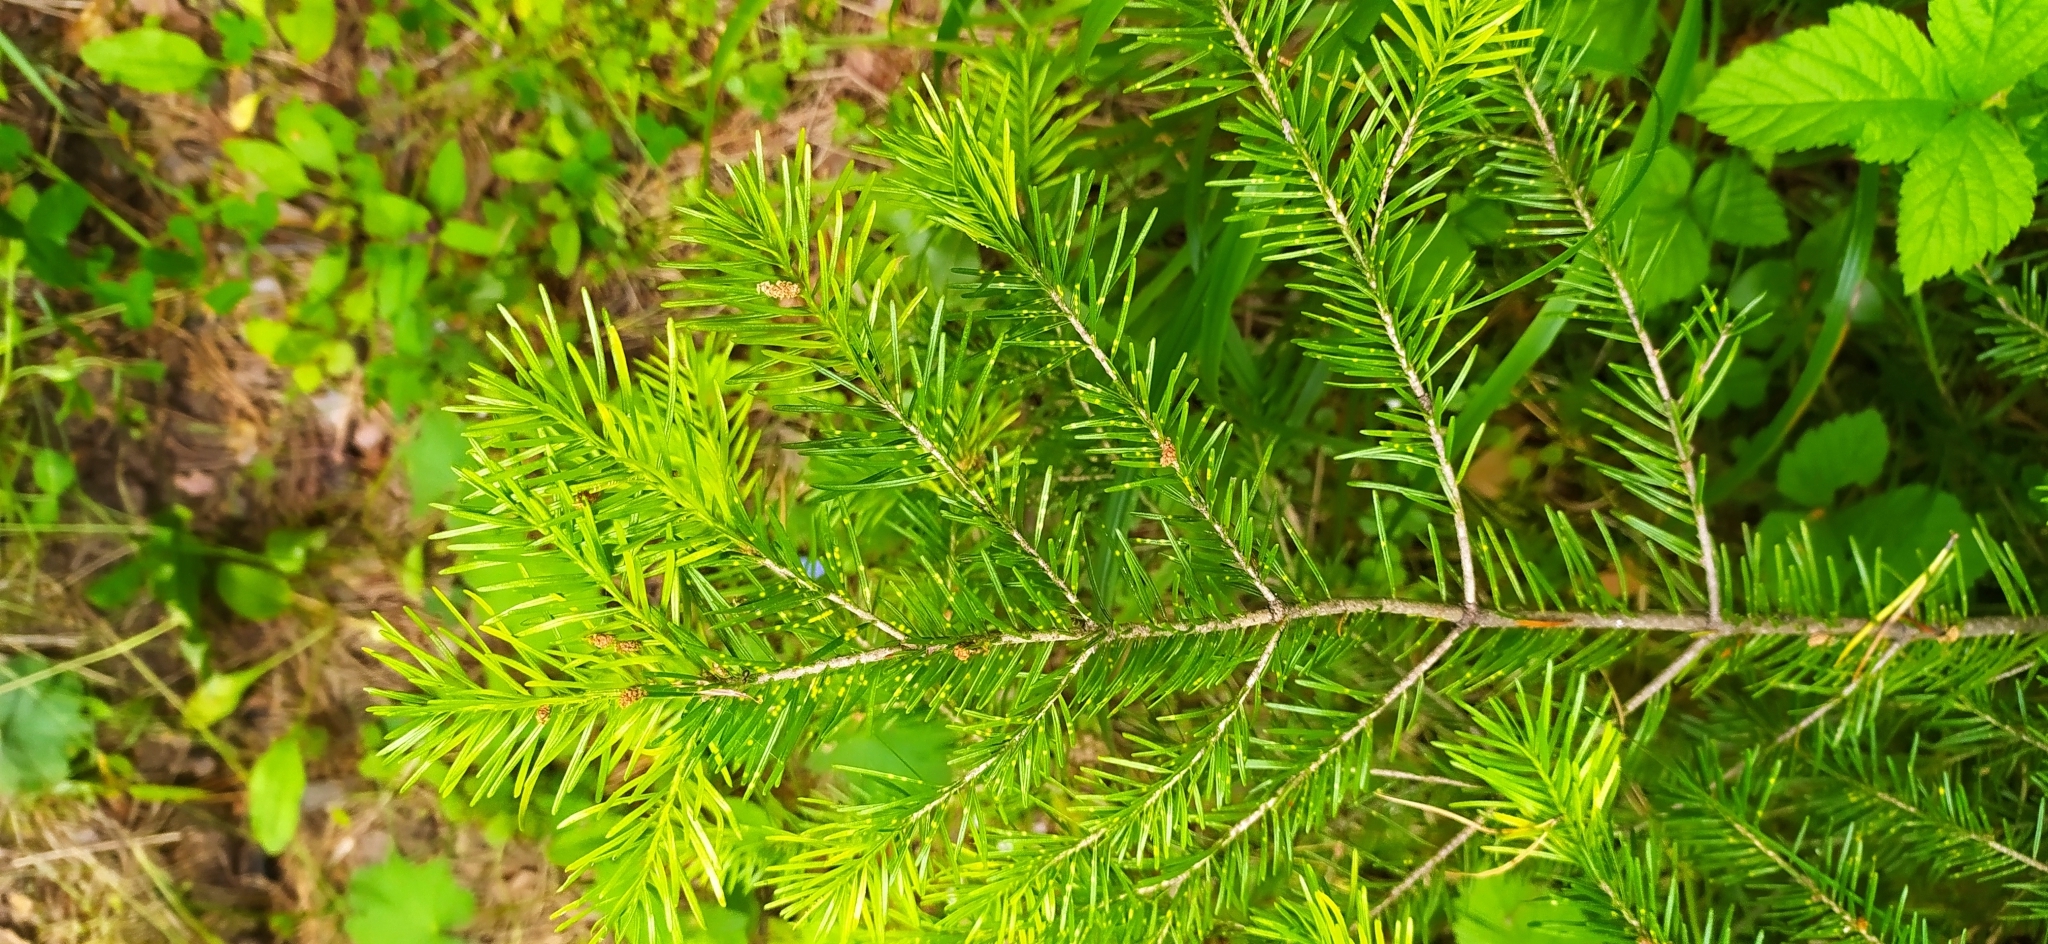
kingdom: Plantae
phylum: Tracheophyta
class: Pinopsida
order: Pinales
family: Pinaceae
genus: Abies
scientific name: Abies sibirica
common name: Siberian fir
